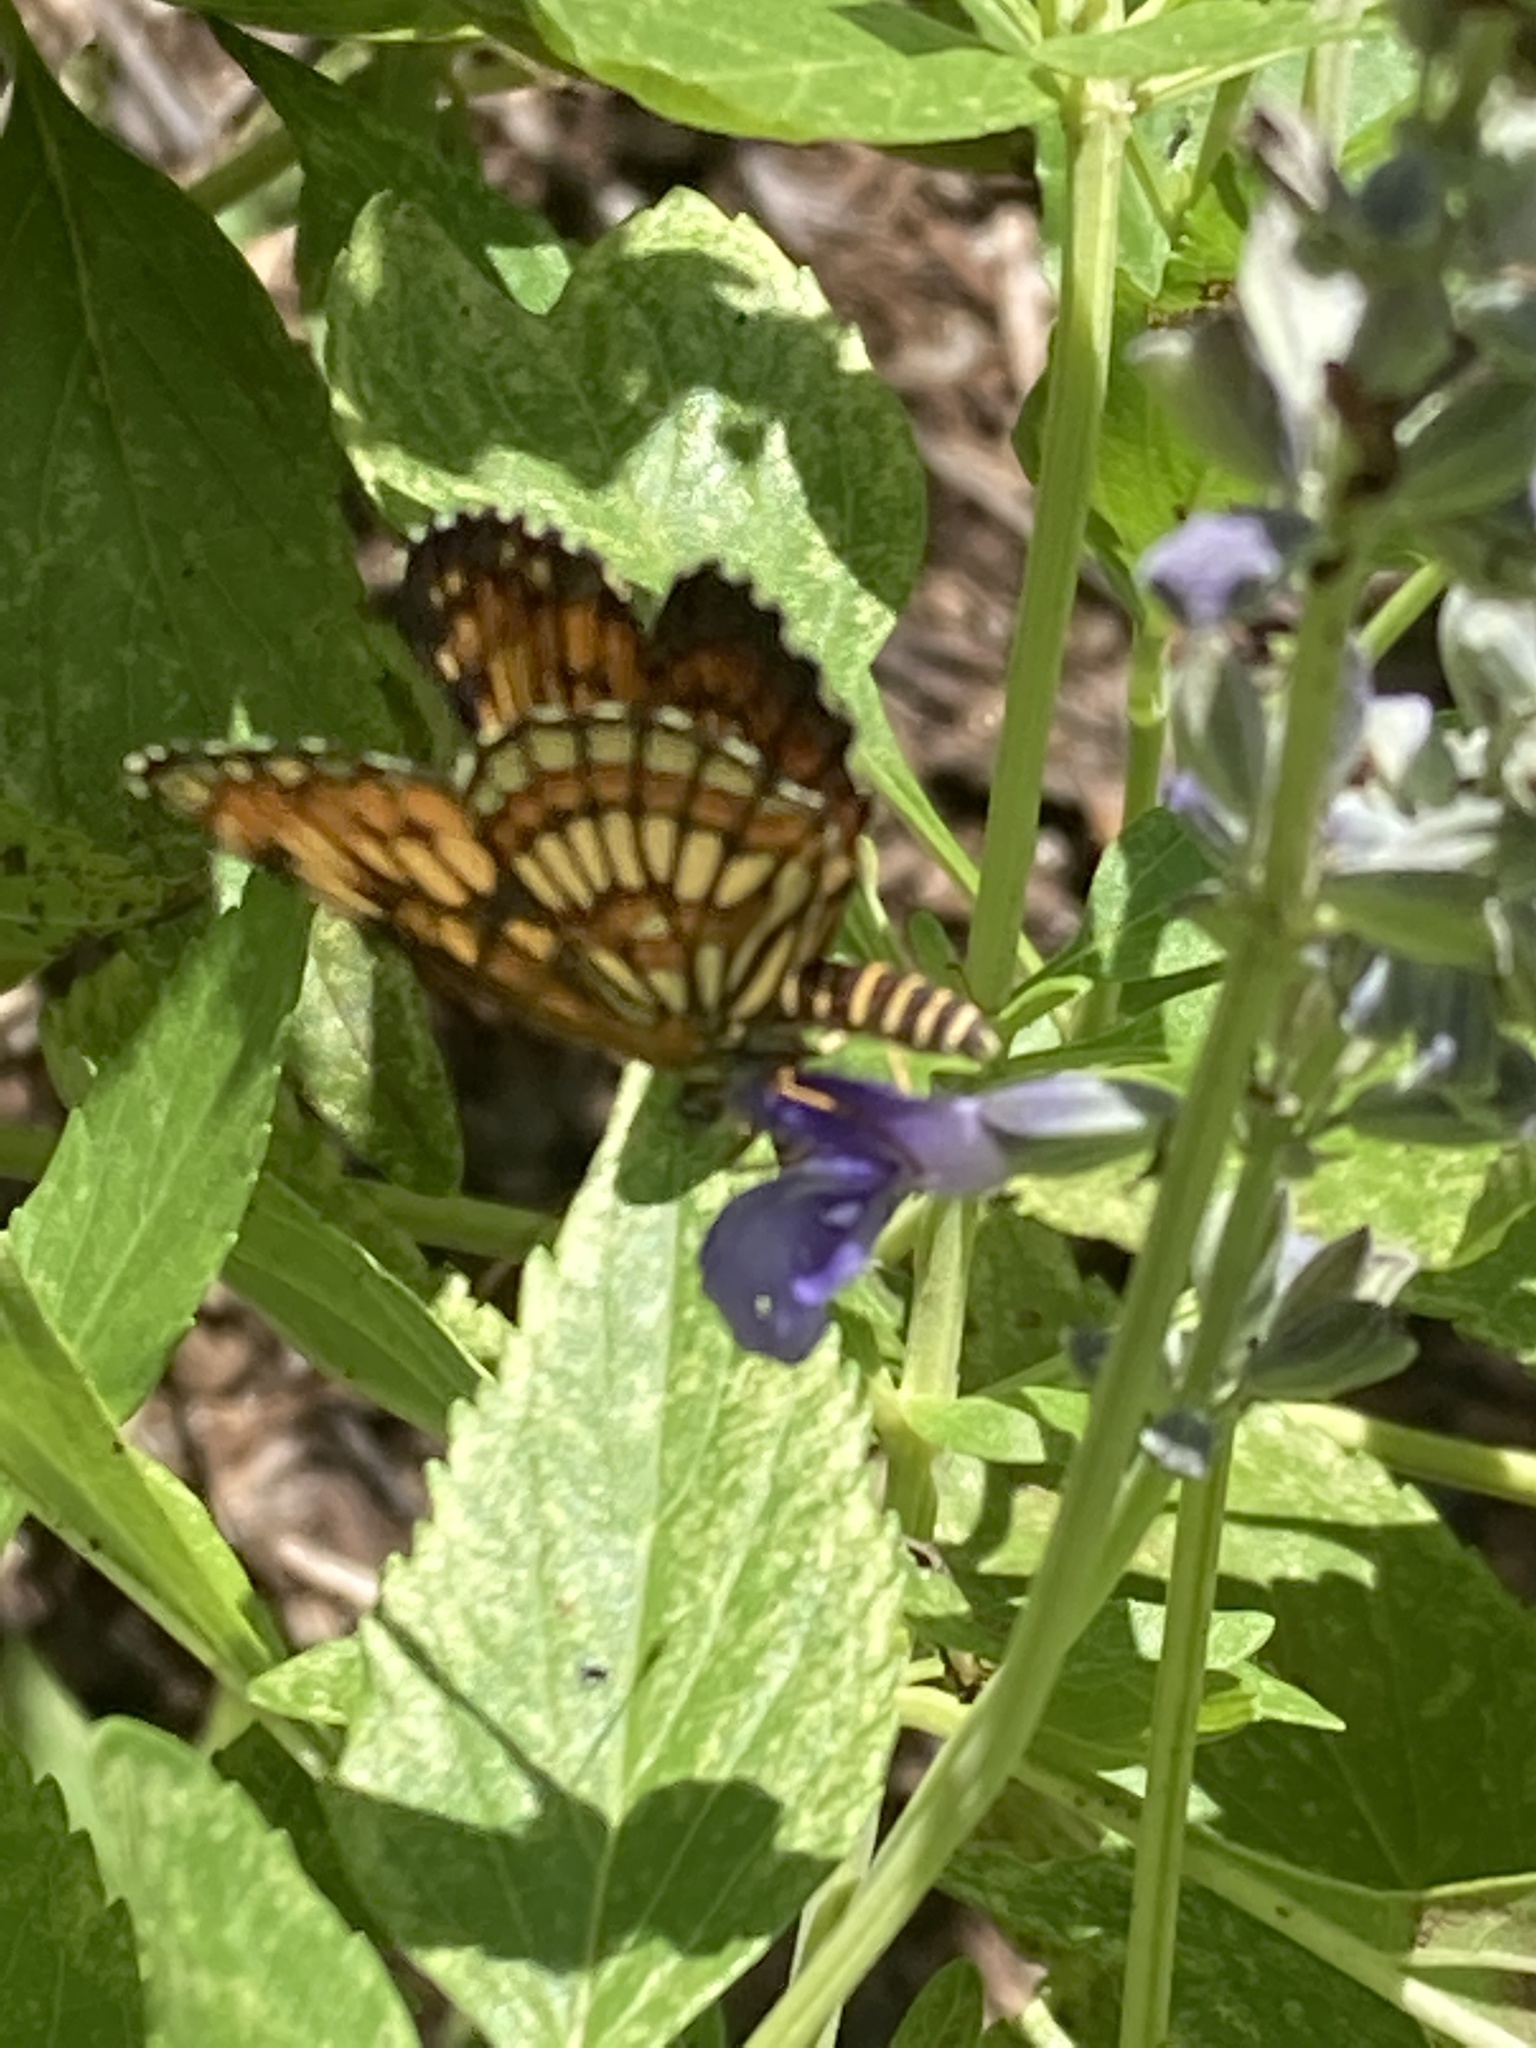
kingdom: Animalia
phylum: Arthropoda
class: Insecta
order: Lepidoptera
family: Nymphalidae
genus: Thessalia
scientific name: Thessalia theona
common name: Nymphalid moth
